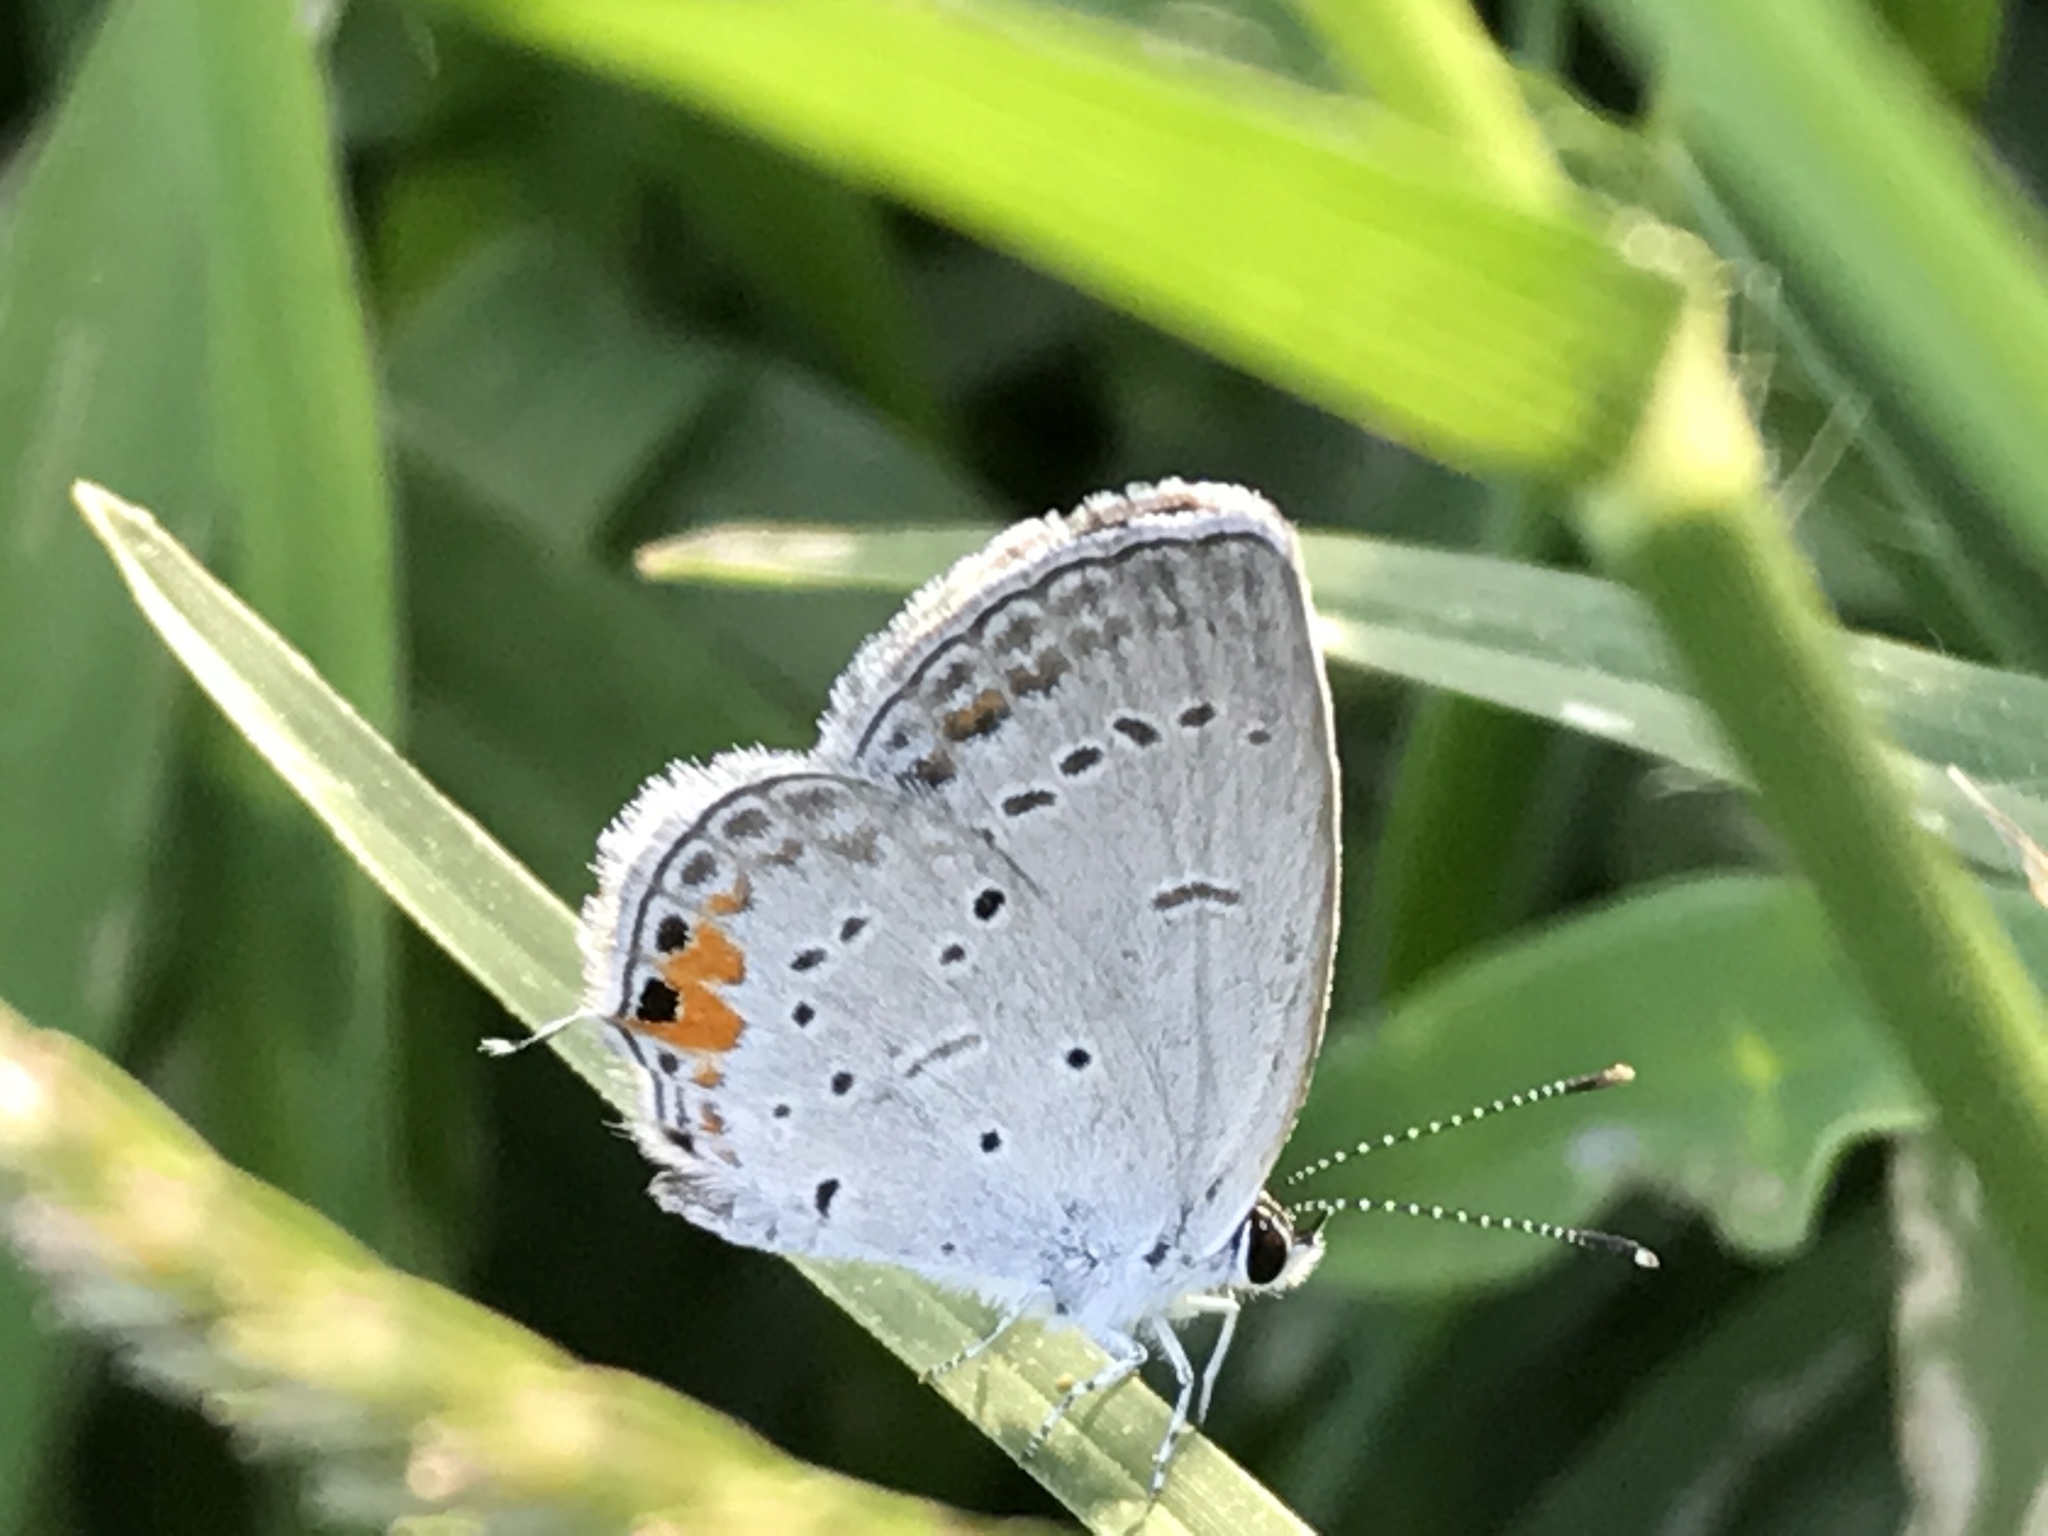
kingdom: Animalia
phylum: Arthropoda
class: Insecta
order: Lepidoptera
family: Lycaenidae
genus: Elkalyce
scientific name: Elkalyce comyntas
